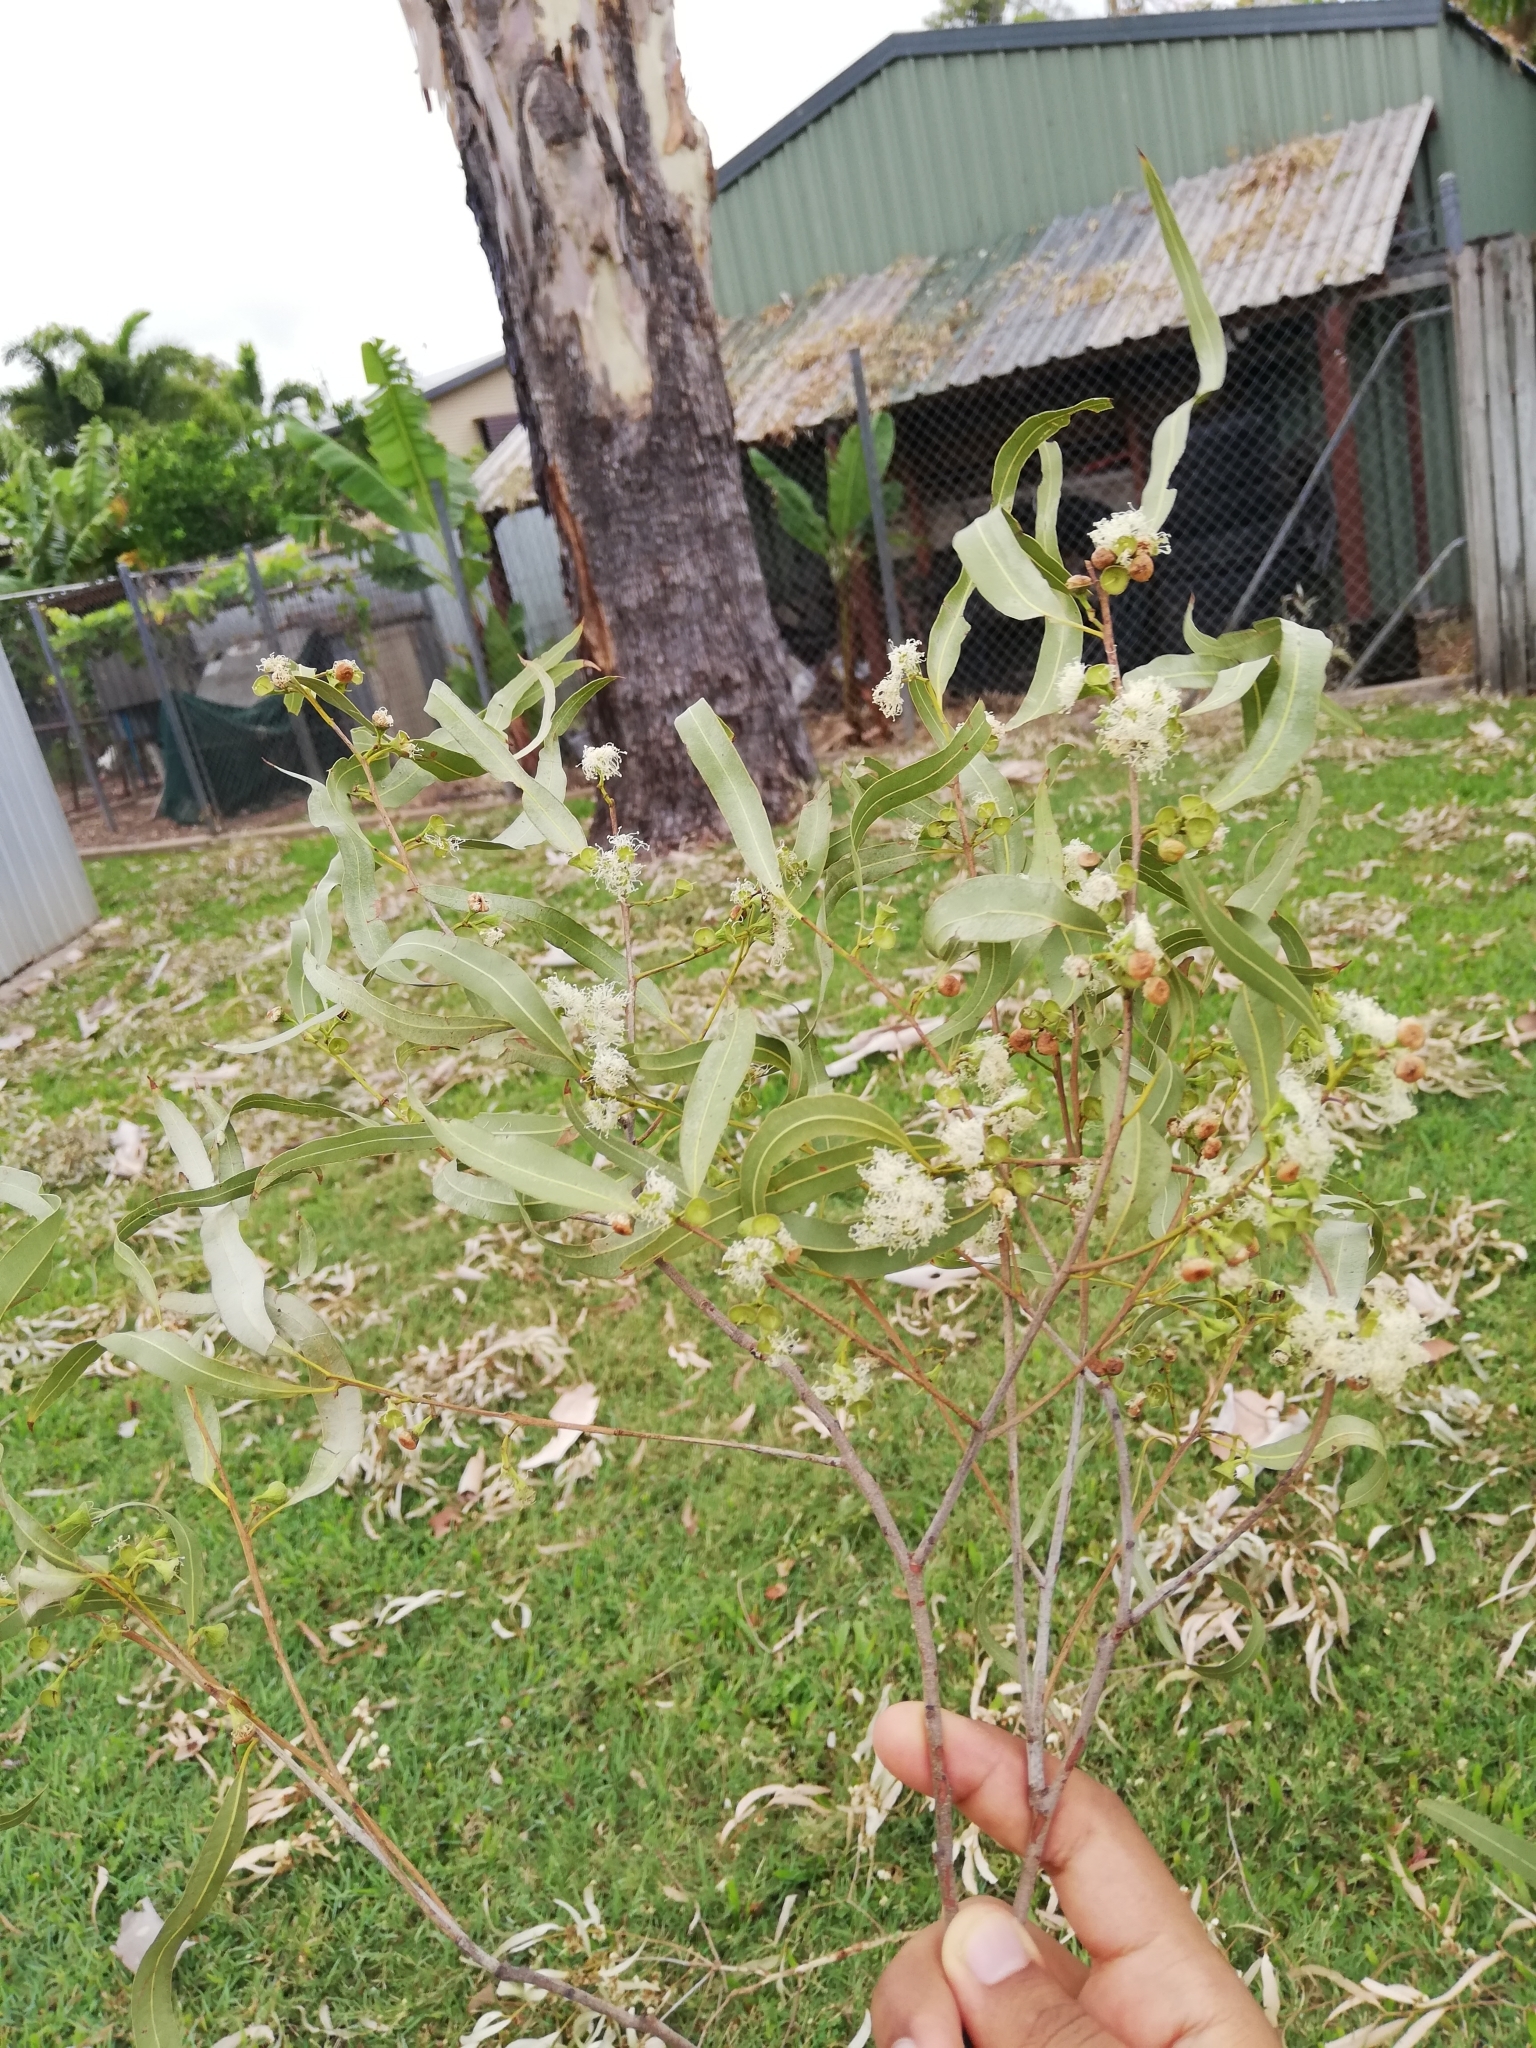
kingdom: Plantae
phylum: Tracheophyta
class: Magnoliopsida
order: Myrtales
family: Myrtaceae
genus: Corymbia
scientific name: Corymbia tessellaris
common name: Carbeen
